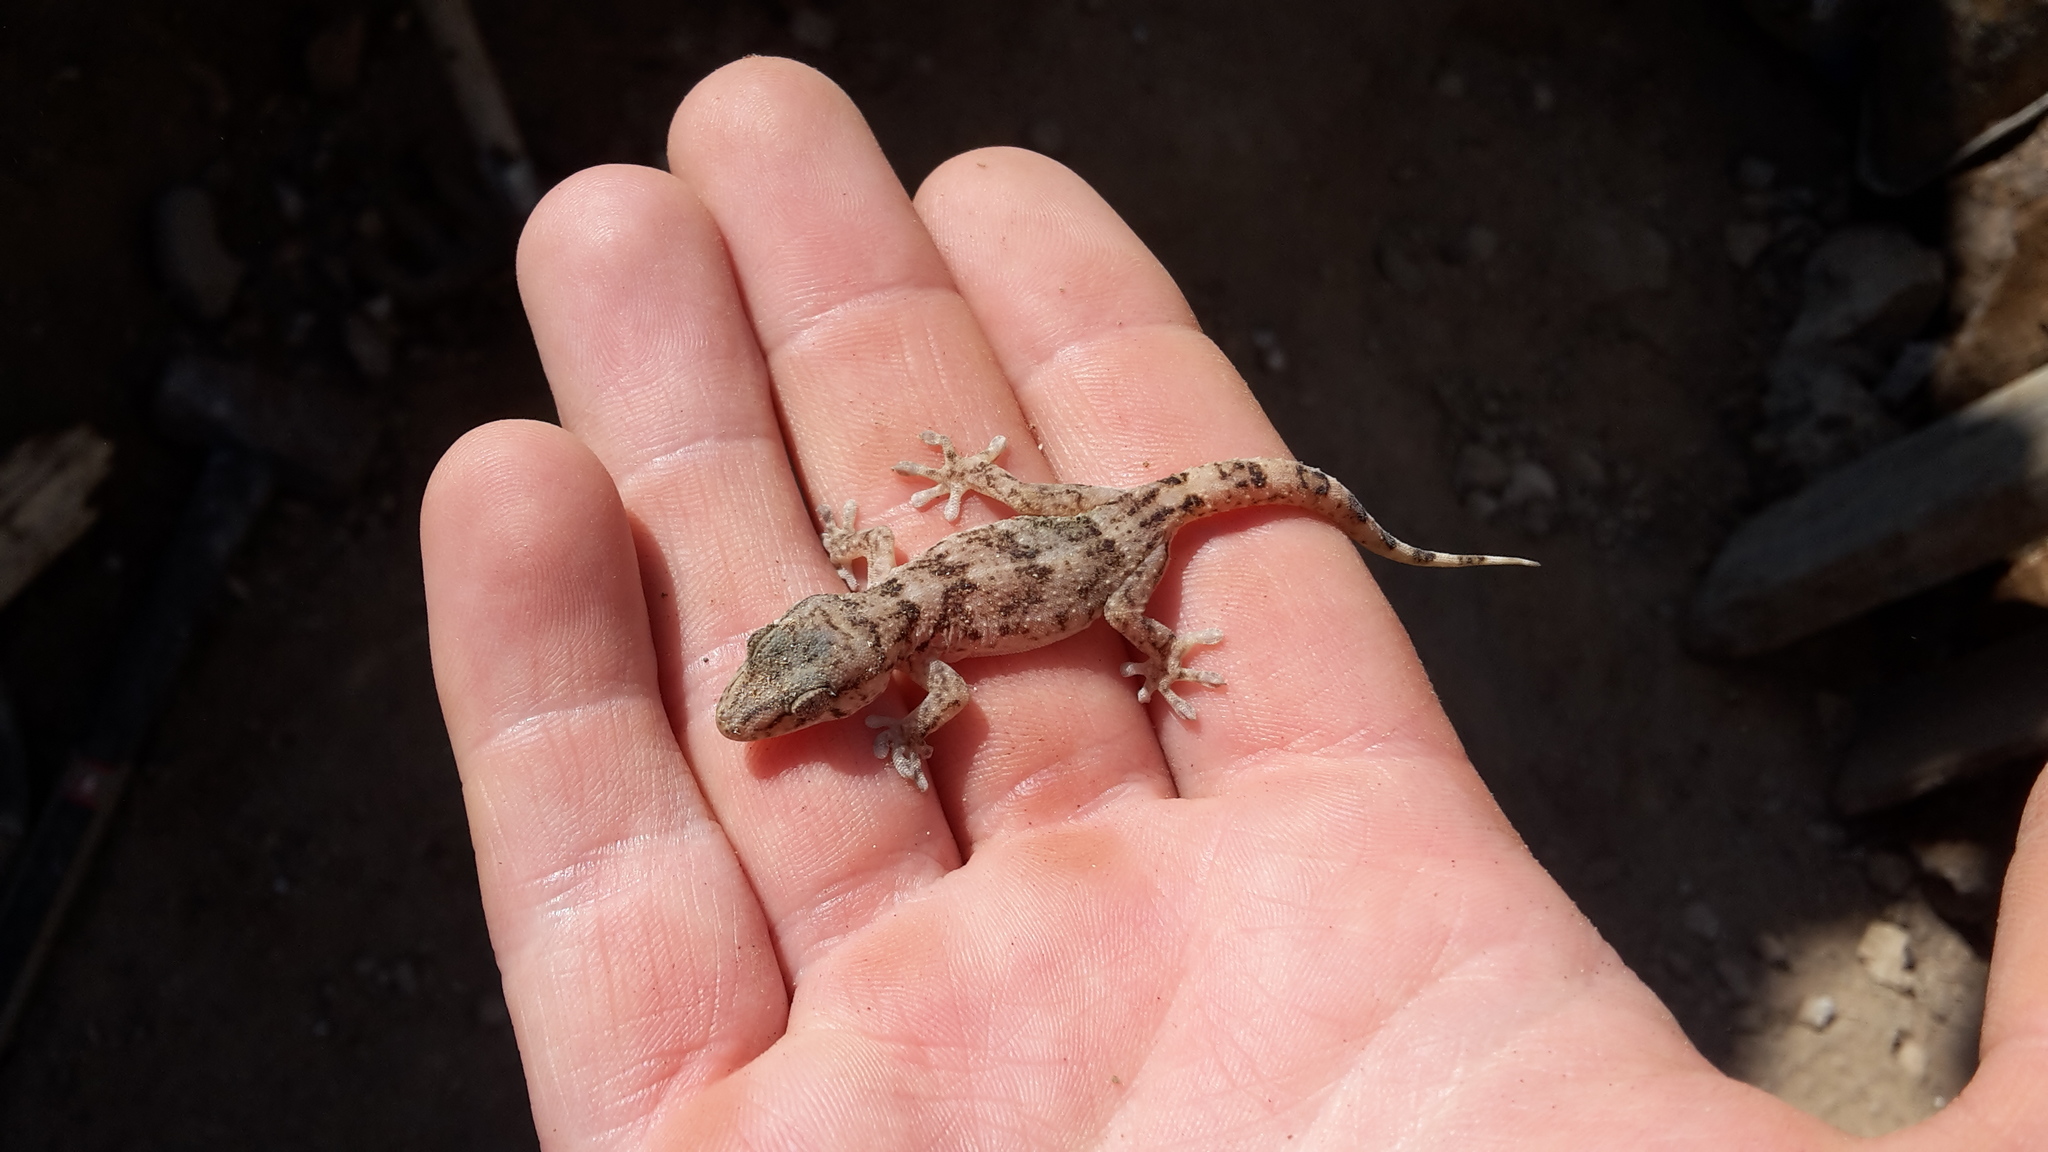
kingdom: Animalia
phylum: Chordata
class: Squamata
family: Phyllodactylidae
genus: Tarentola
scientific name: Tarentola boettgeri
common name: Boettger's wall gecko
